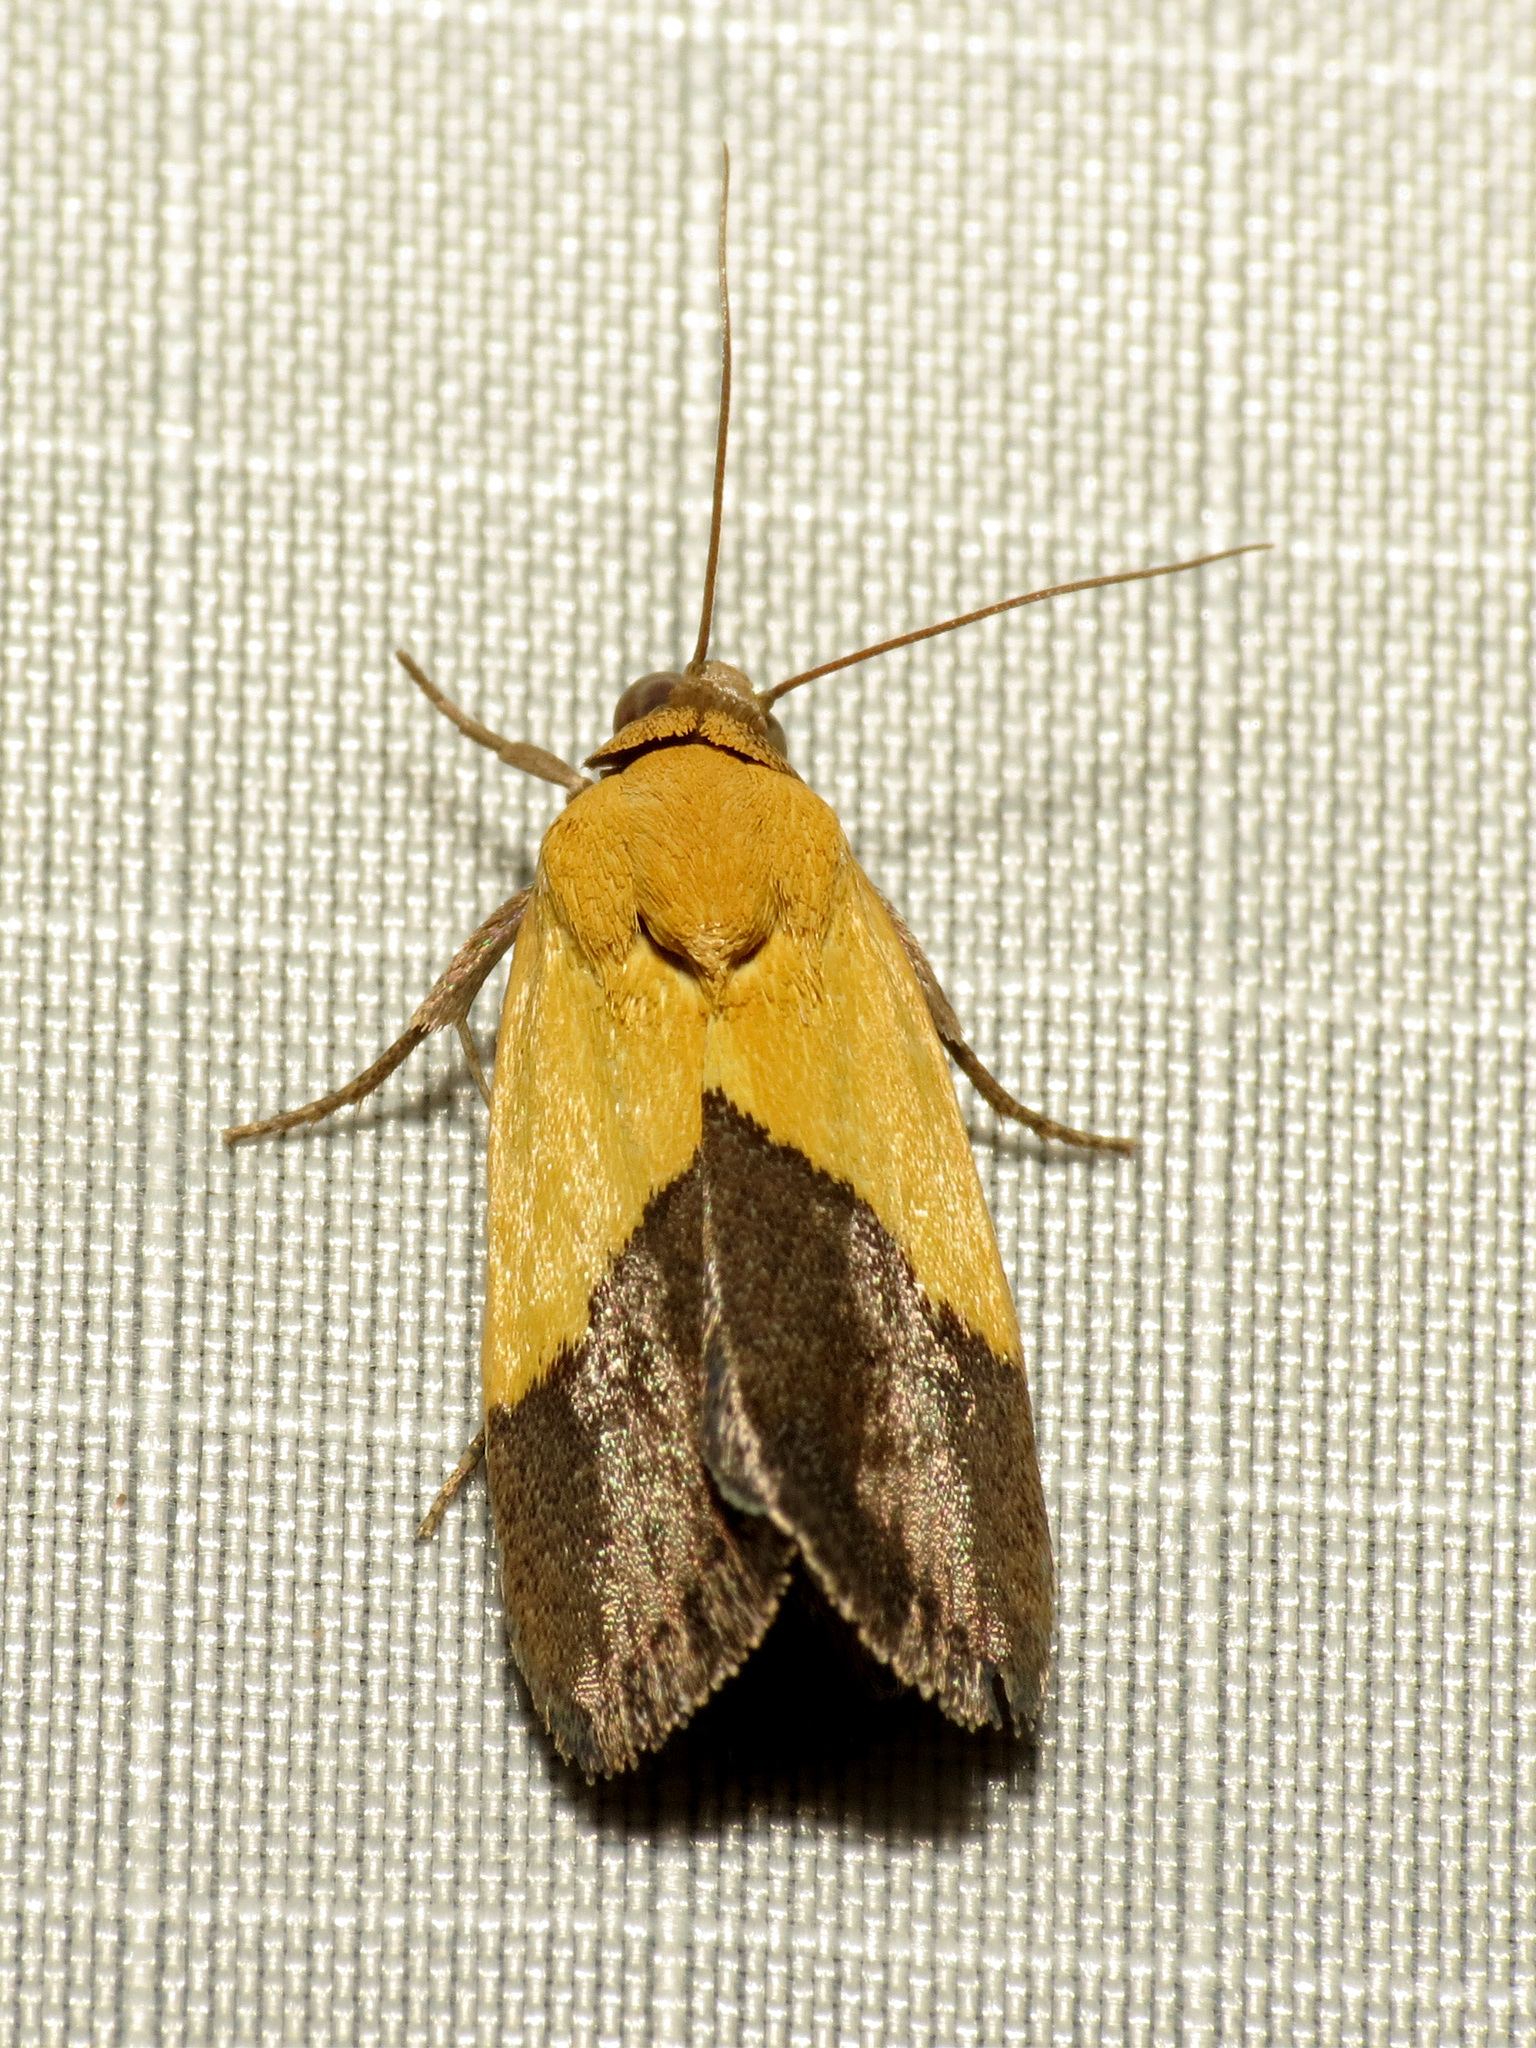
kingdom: Animalia
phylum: Arthropoda
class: Insecta
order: Lepidoptera
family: Noctuidae
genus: Acontia
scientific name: Acontia semiflava
